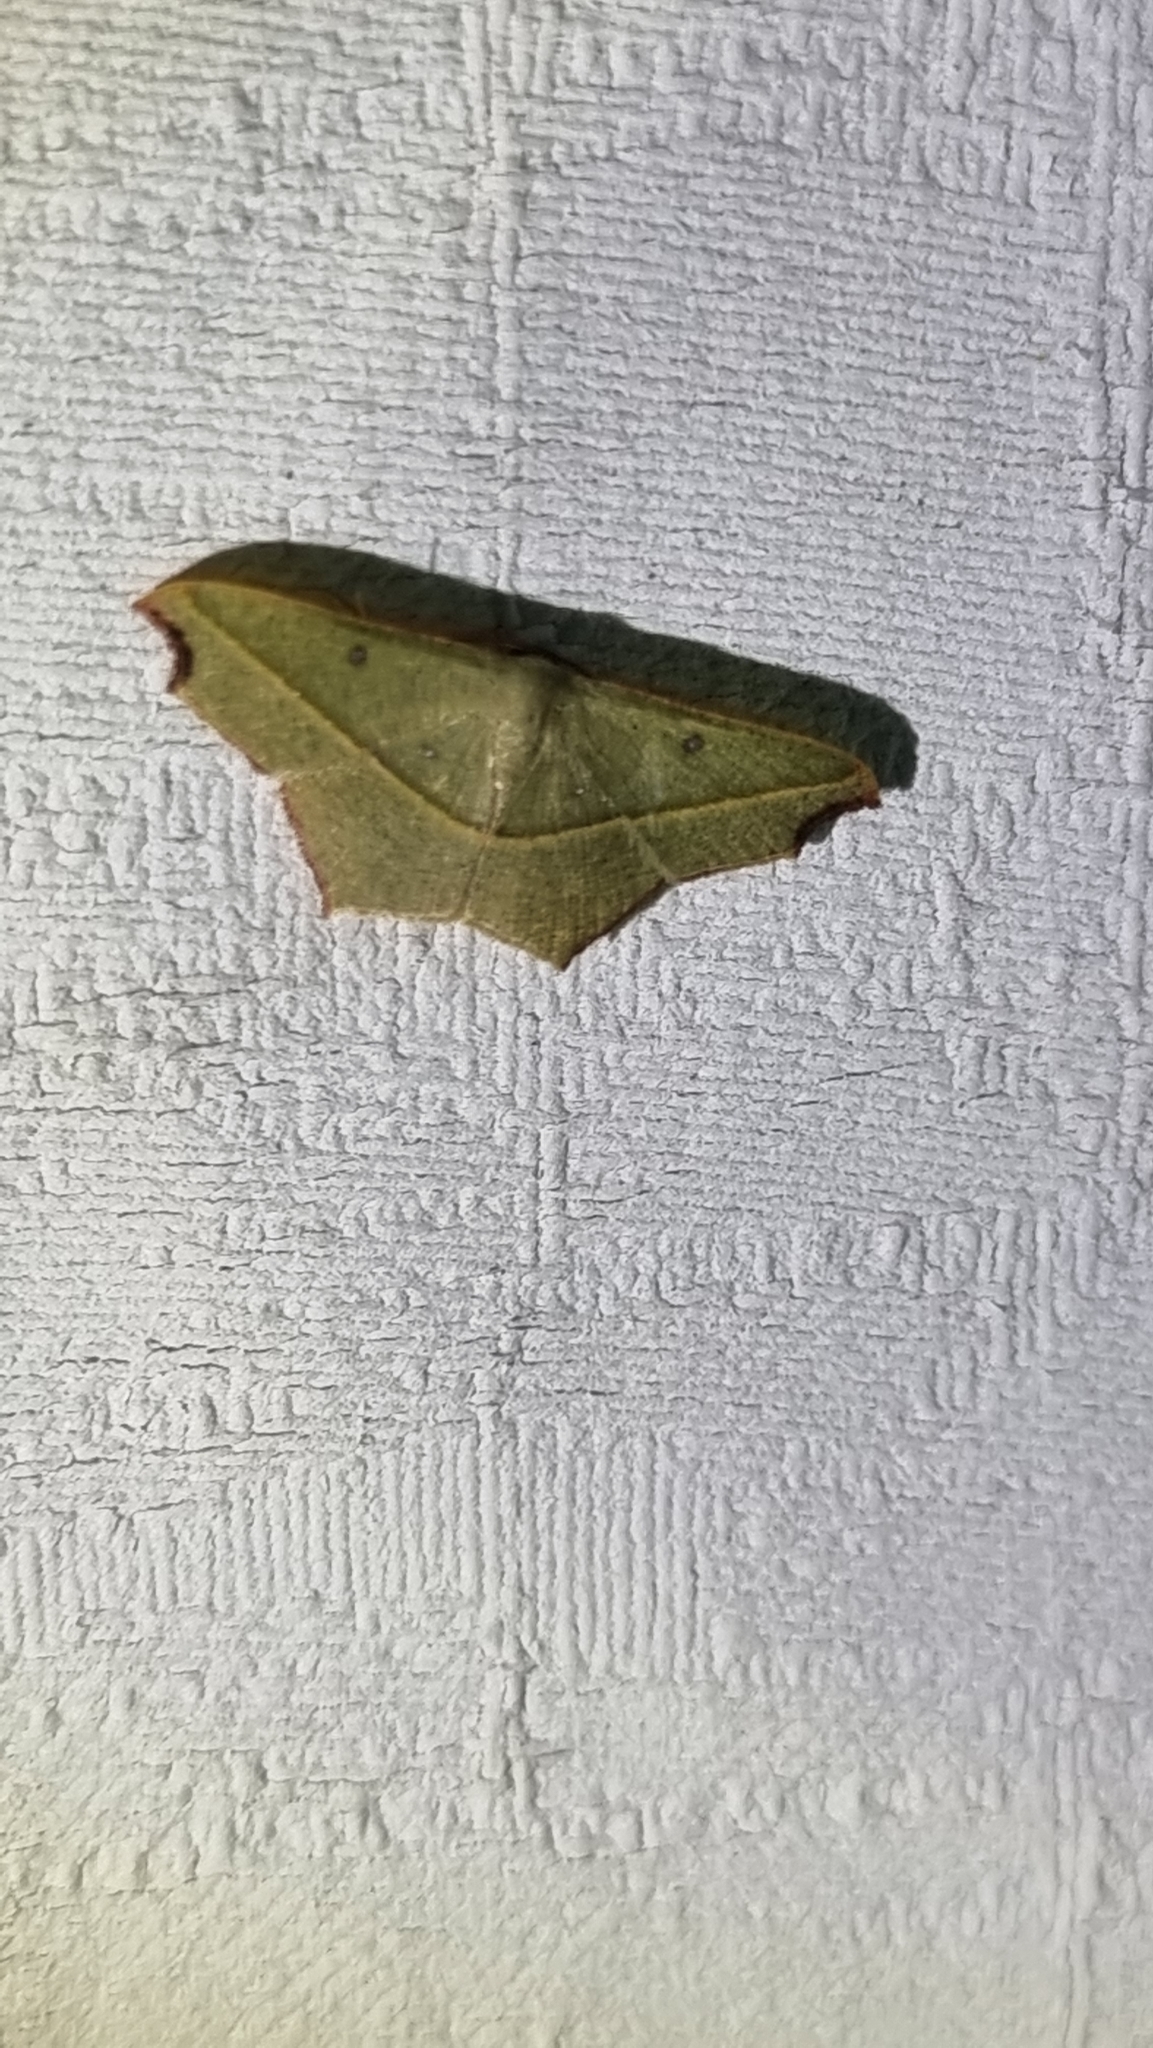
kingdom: Animalia
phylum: Arthropoda
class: Insecta
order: Lepidoptera
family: Geometridae
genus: Traminda
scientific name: Traminda aventiaria
